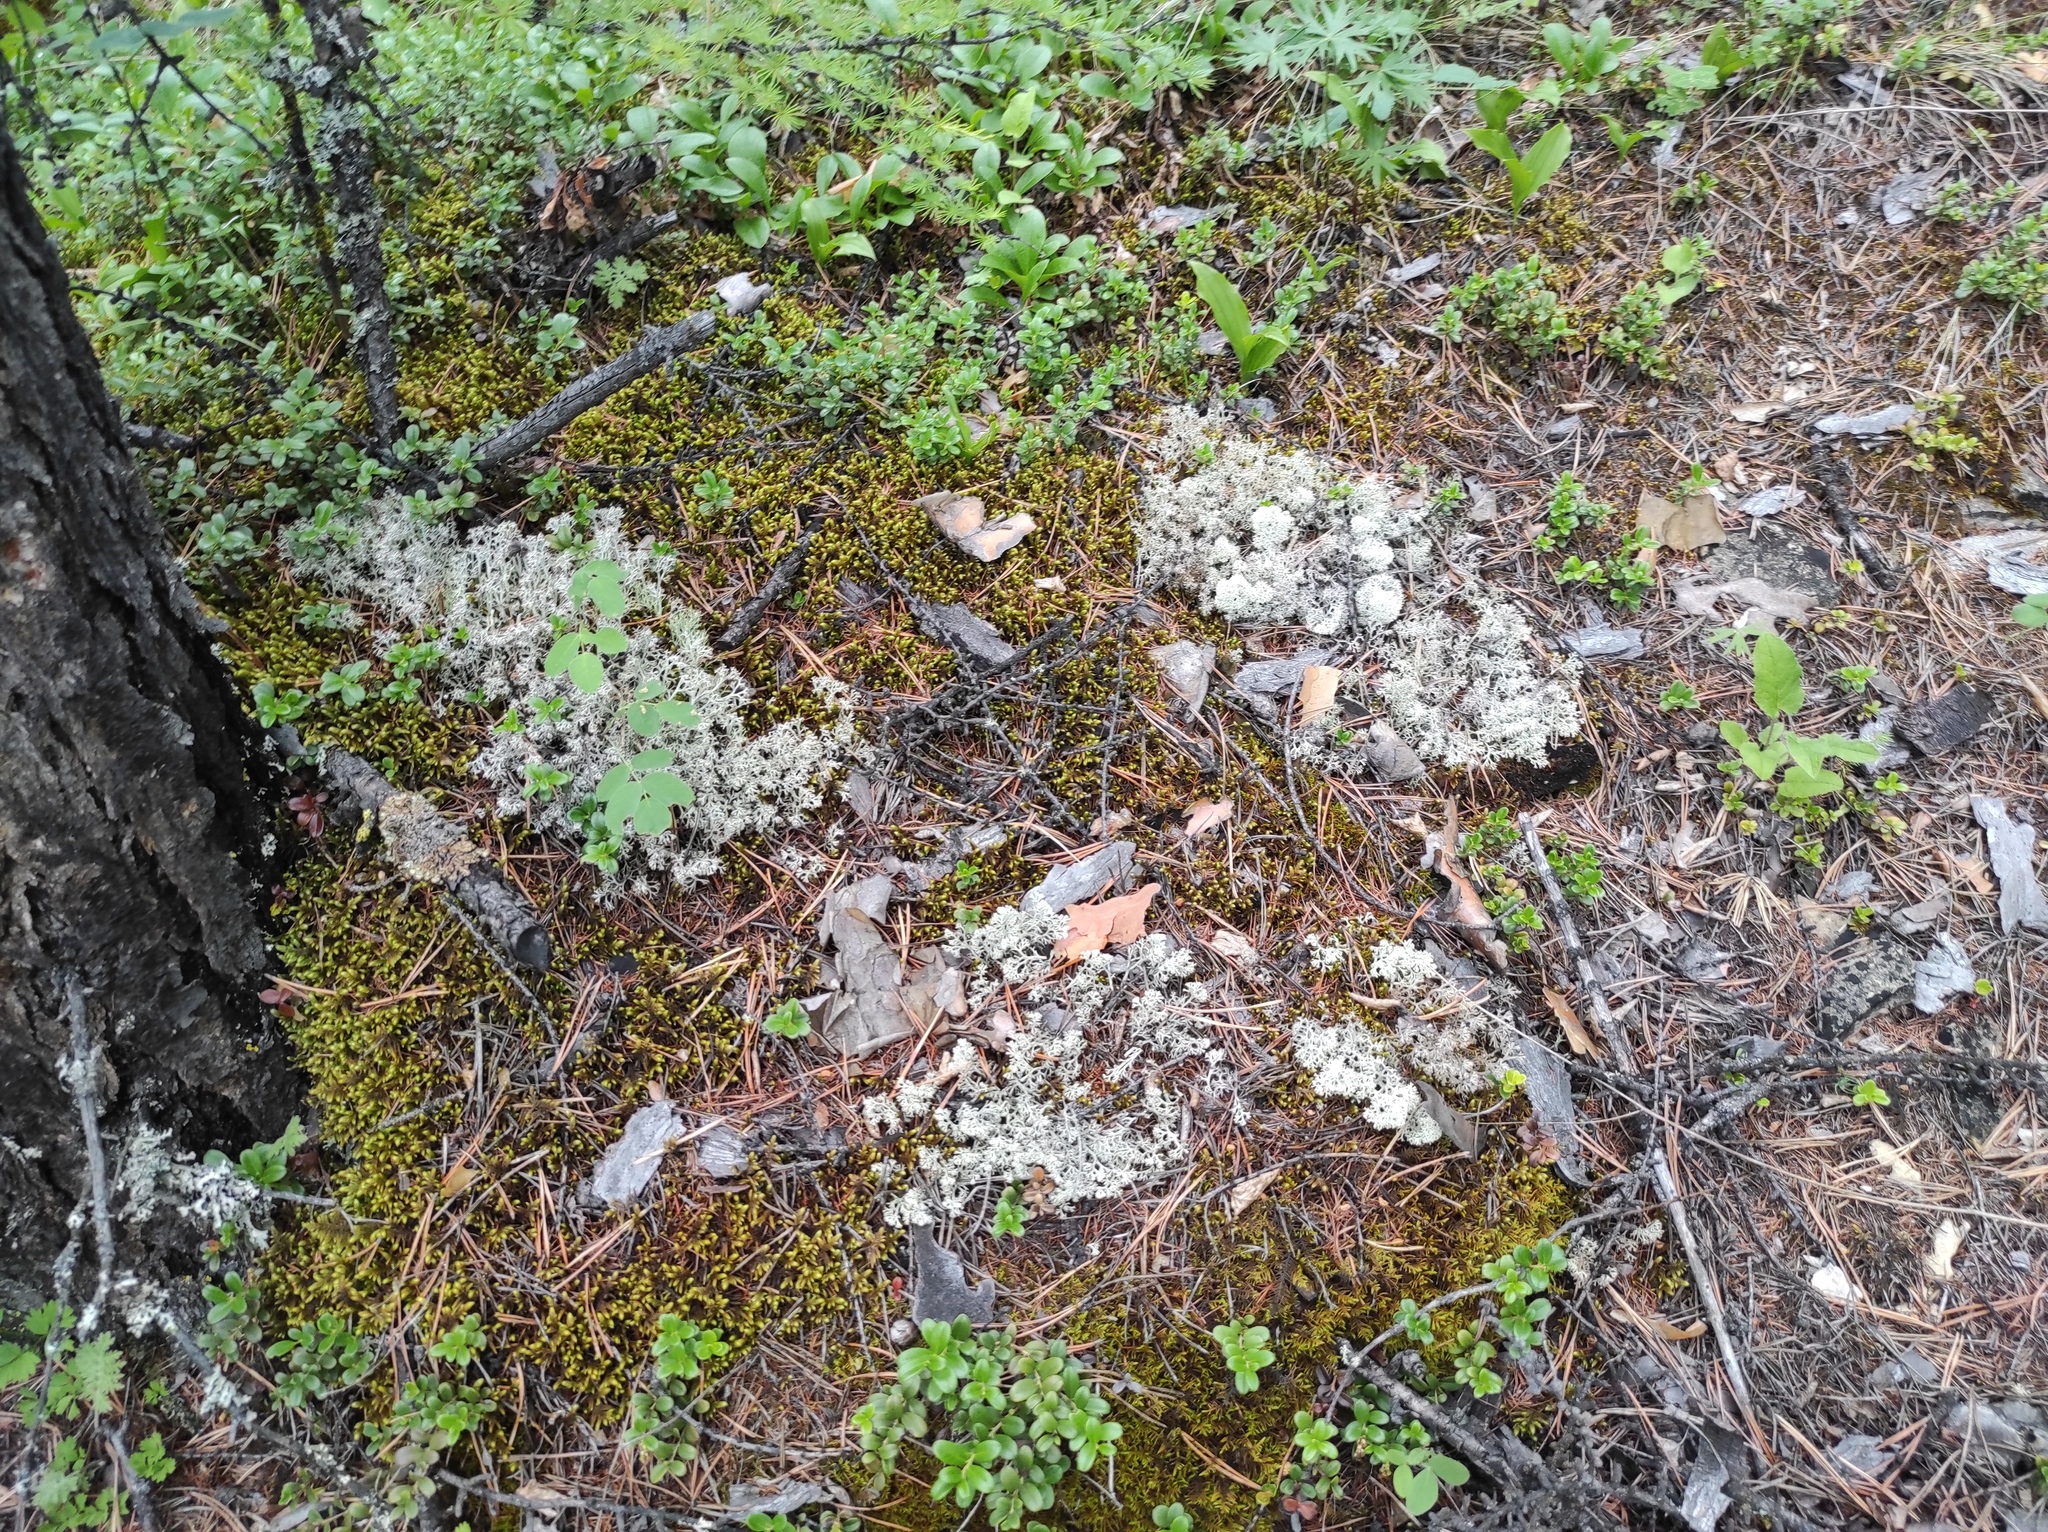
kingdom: Plantae
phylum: Tracheophyta
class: Pinopsida
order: Pinales
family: Pinaceae
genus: Pinus
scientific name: Pinus sylvestris
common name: Scots pine
